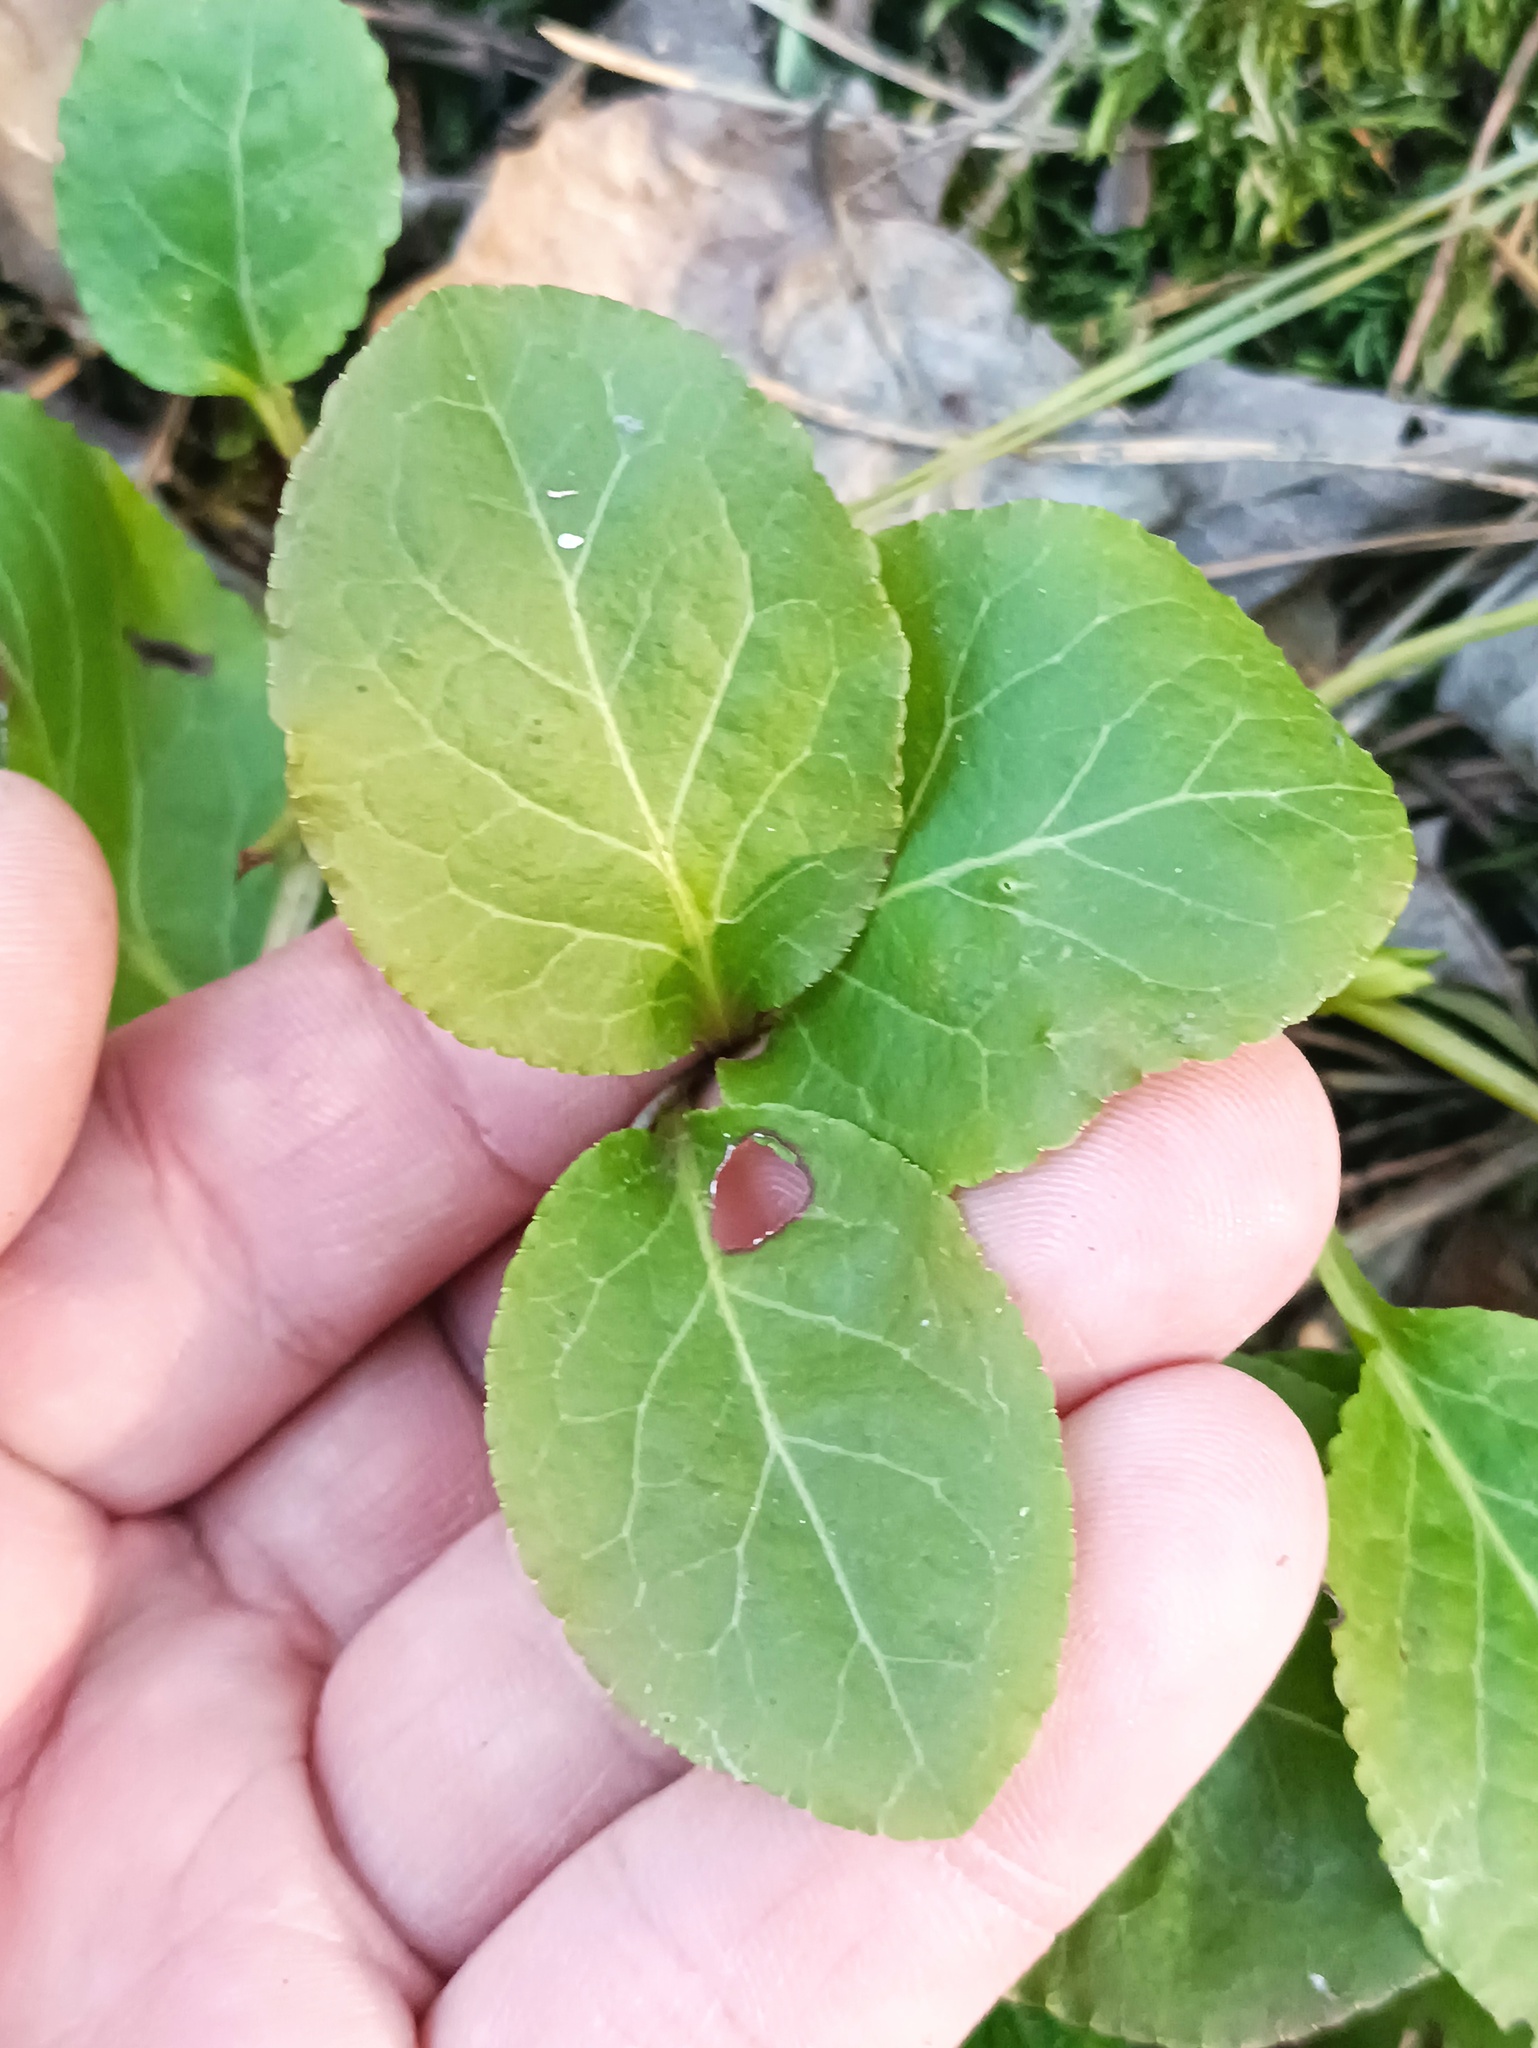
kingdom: Plantae
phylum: Tracheophyta
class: Magnoliopsida
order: Ericales
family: Ericaceae
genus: Pyrola
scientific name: Pyrola minor
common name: Common wintergreen
